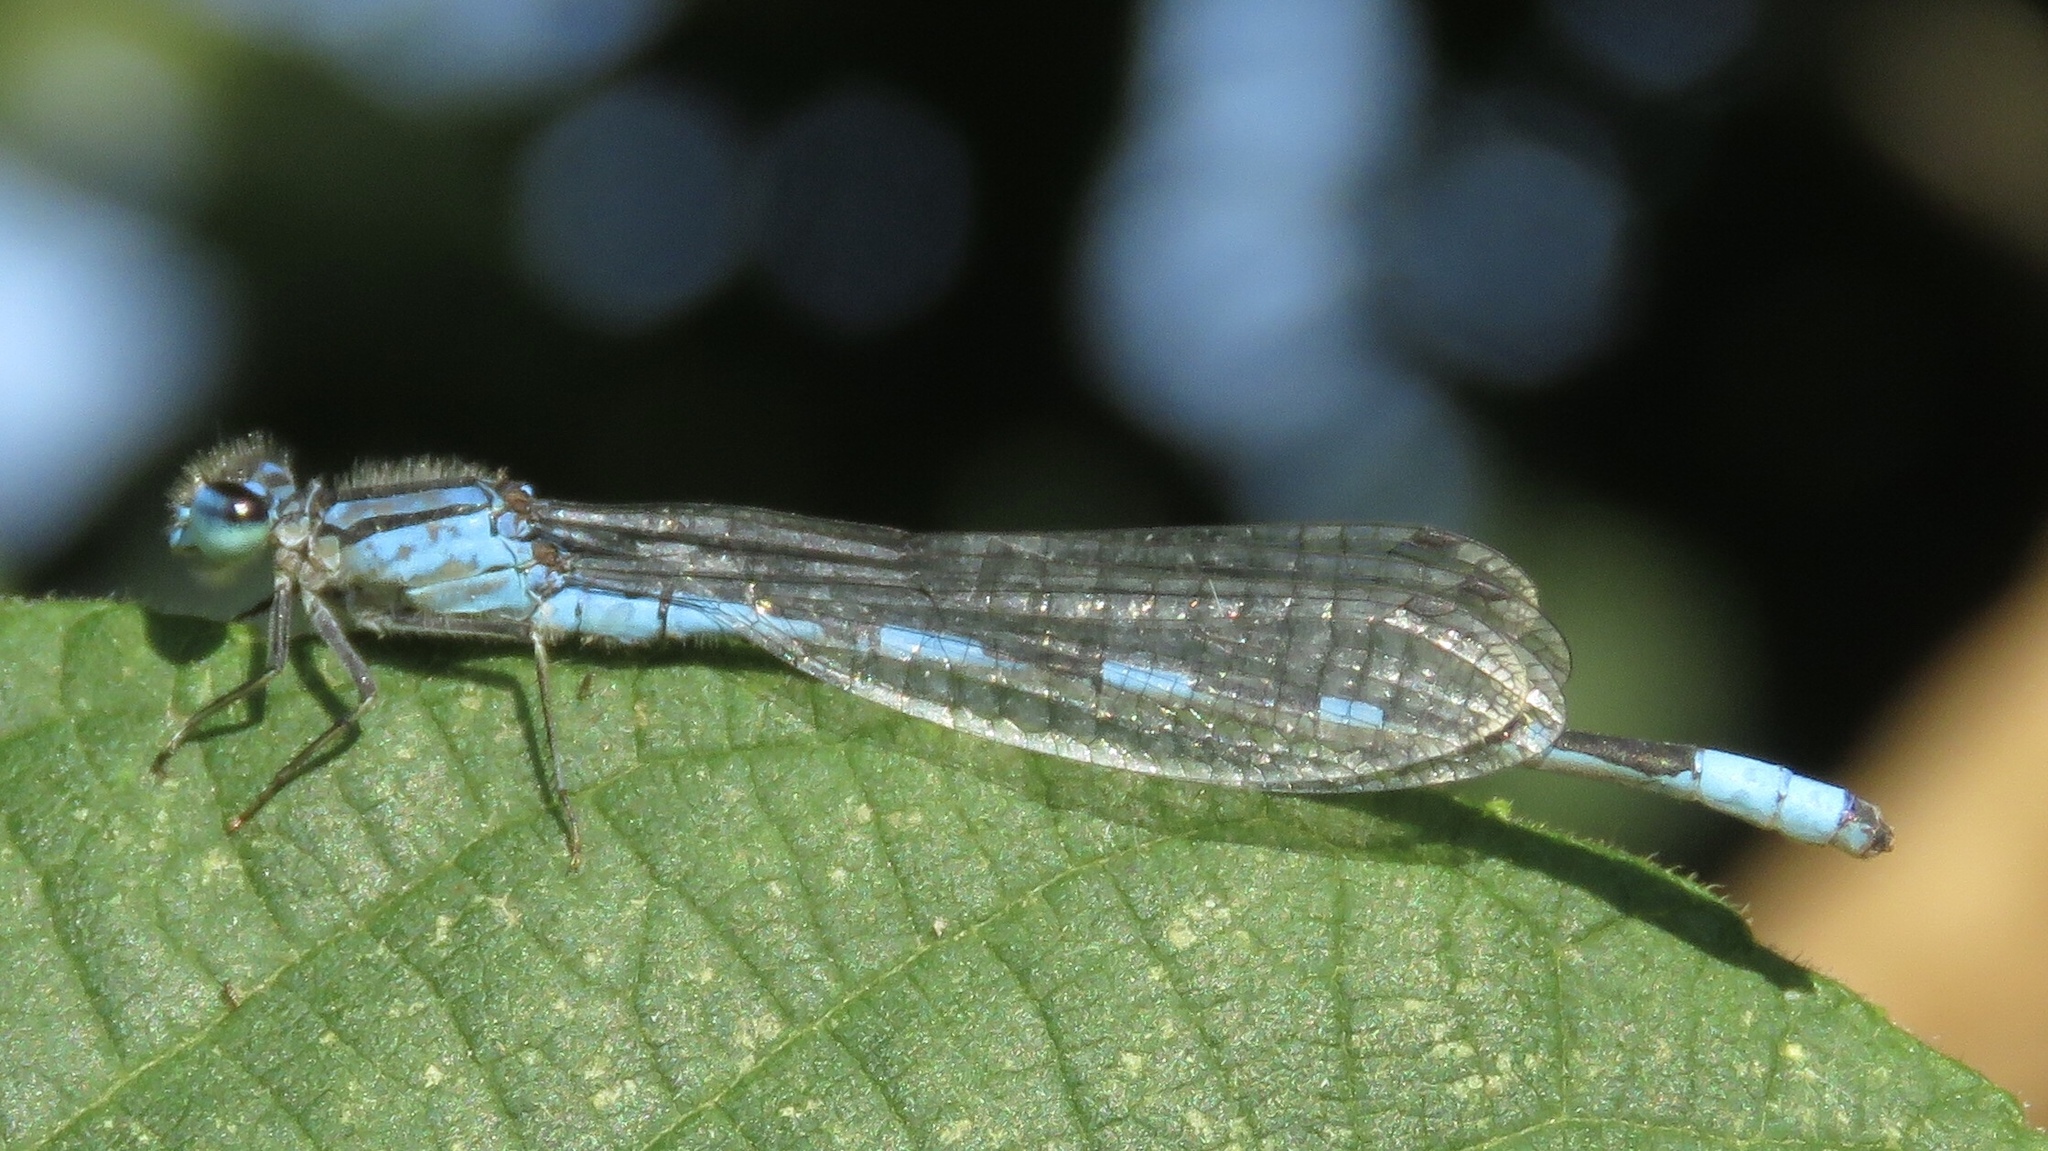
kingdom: Animalia
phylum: Arthropoda
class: Insecta
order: Odonata
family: Coenagrionidae
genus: Enallagma
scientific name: Enallagma carunculatum
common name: Tule bluet
